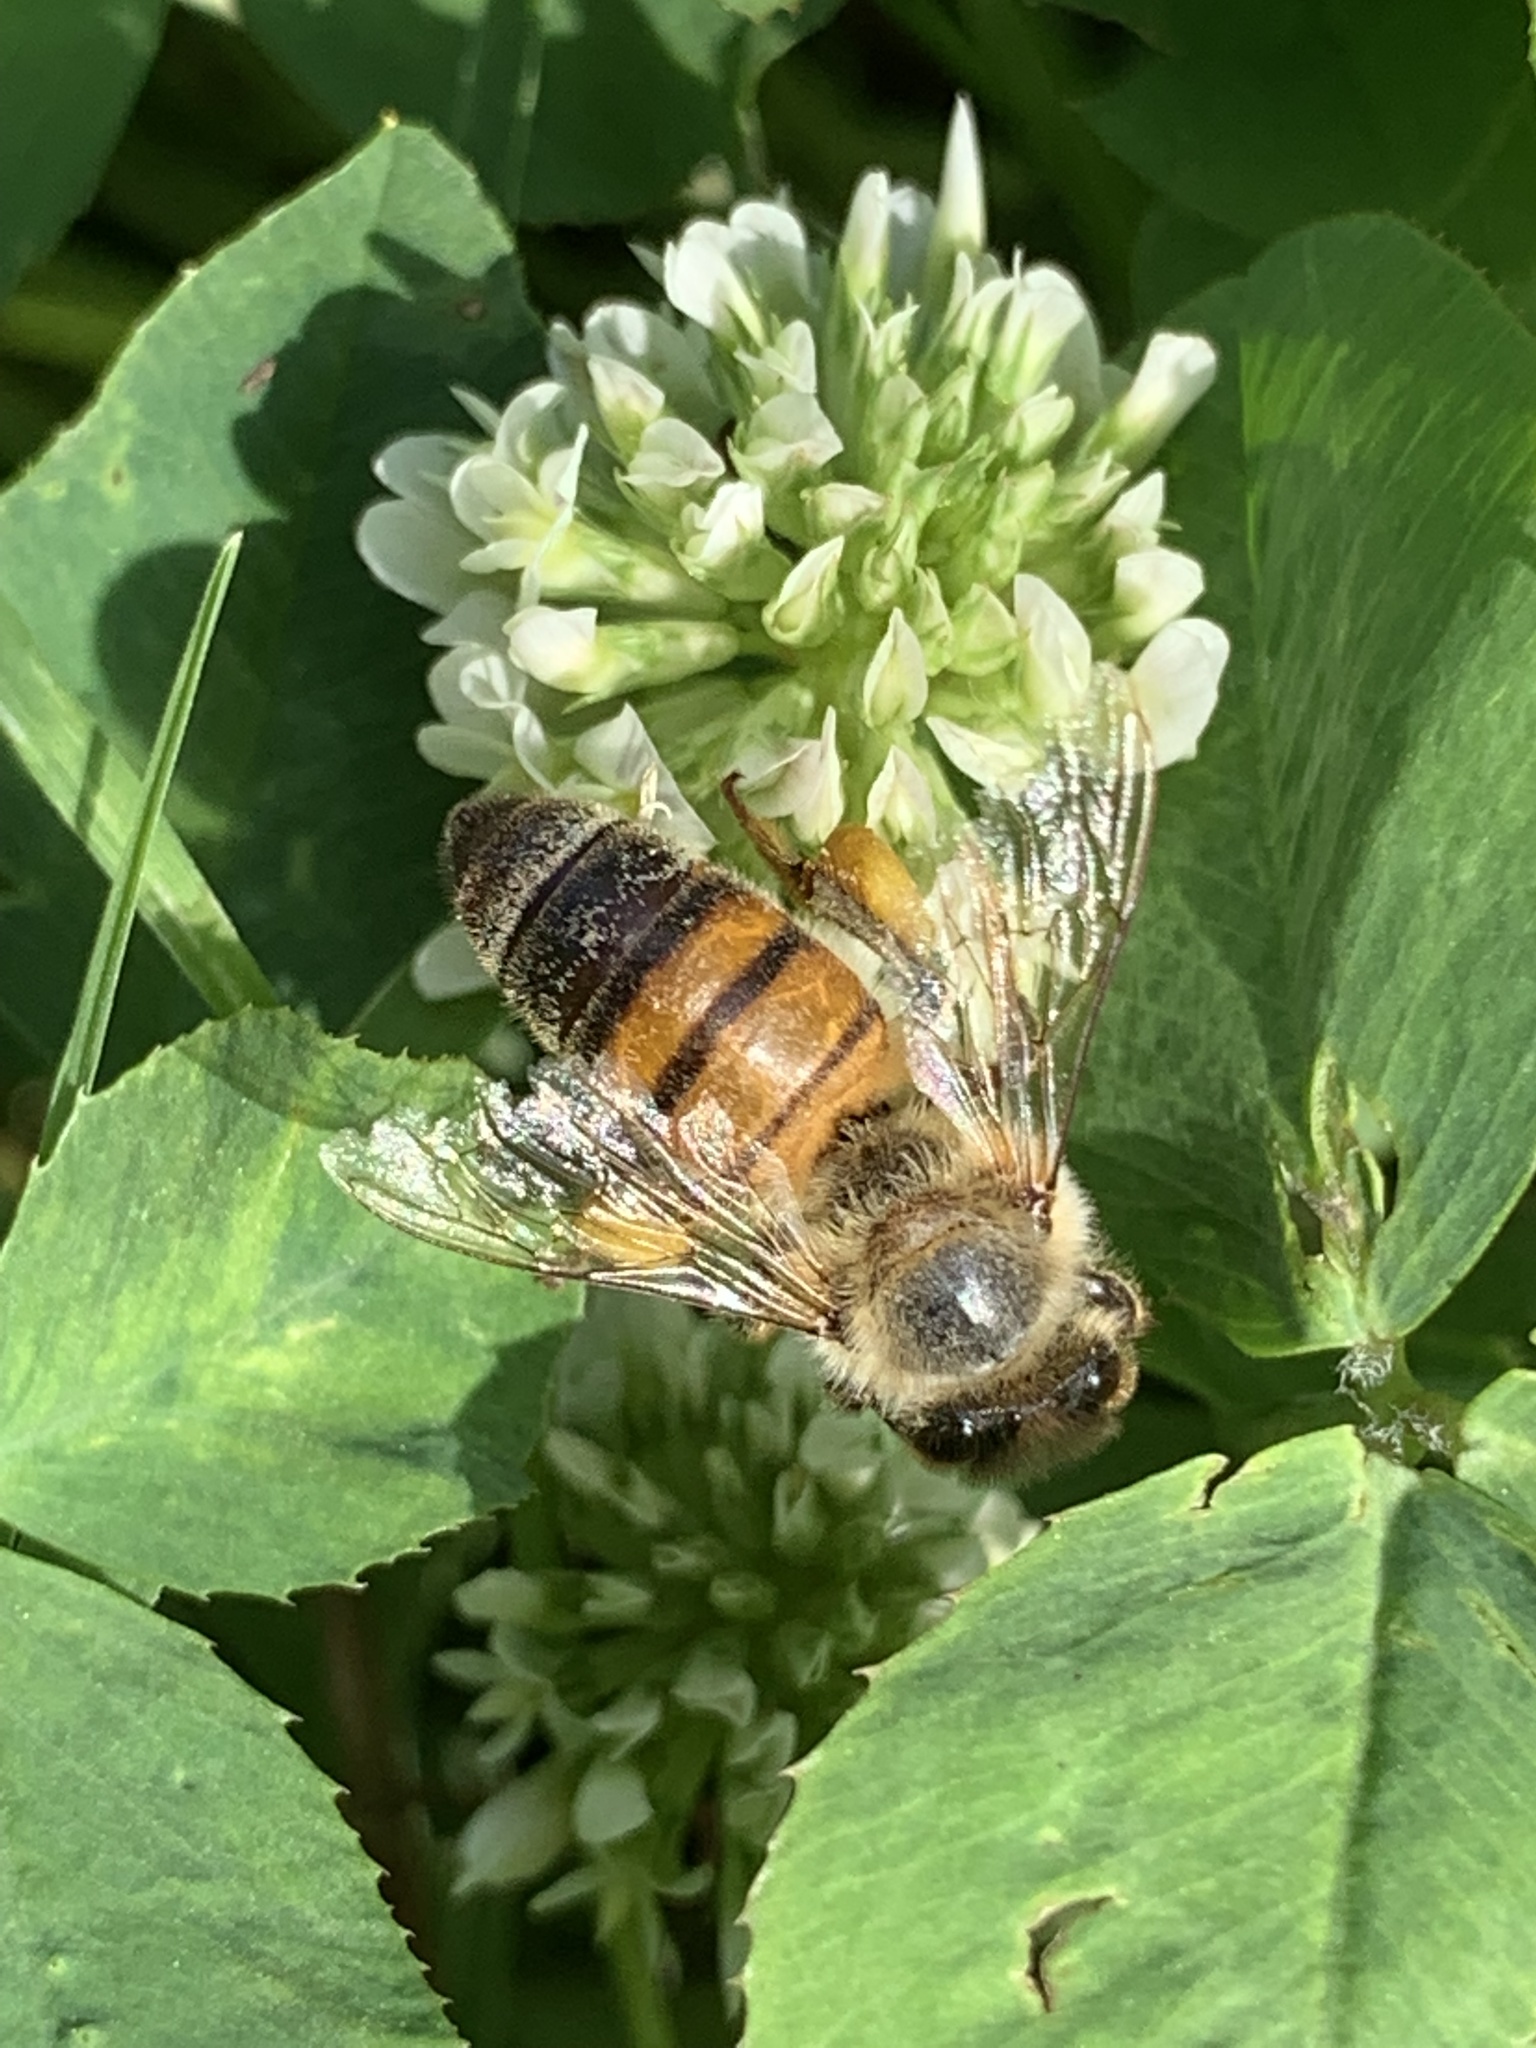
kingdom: Animalia
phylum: Arthropoda
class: Insecta
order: Hymenoptera
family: Apidae
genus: Apis
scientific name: Apis mellifera
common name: Honey bee
